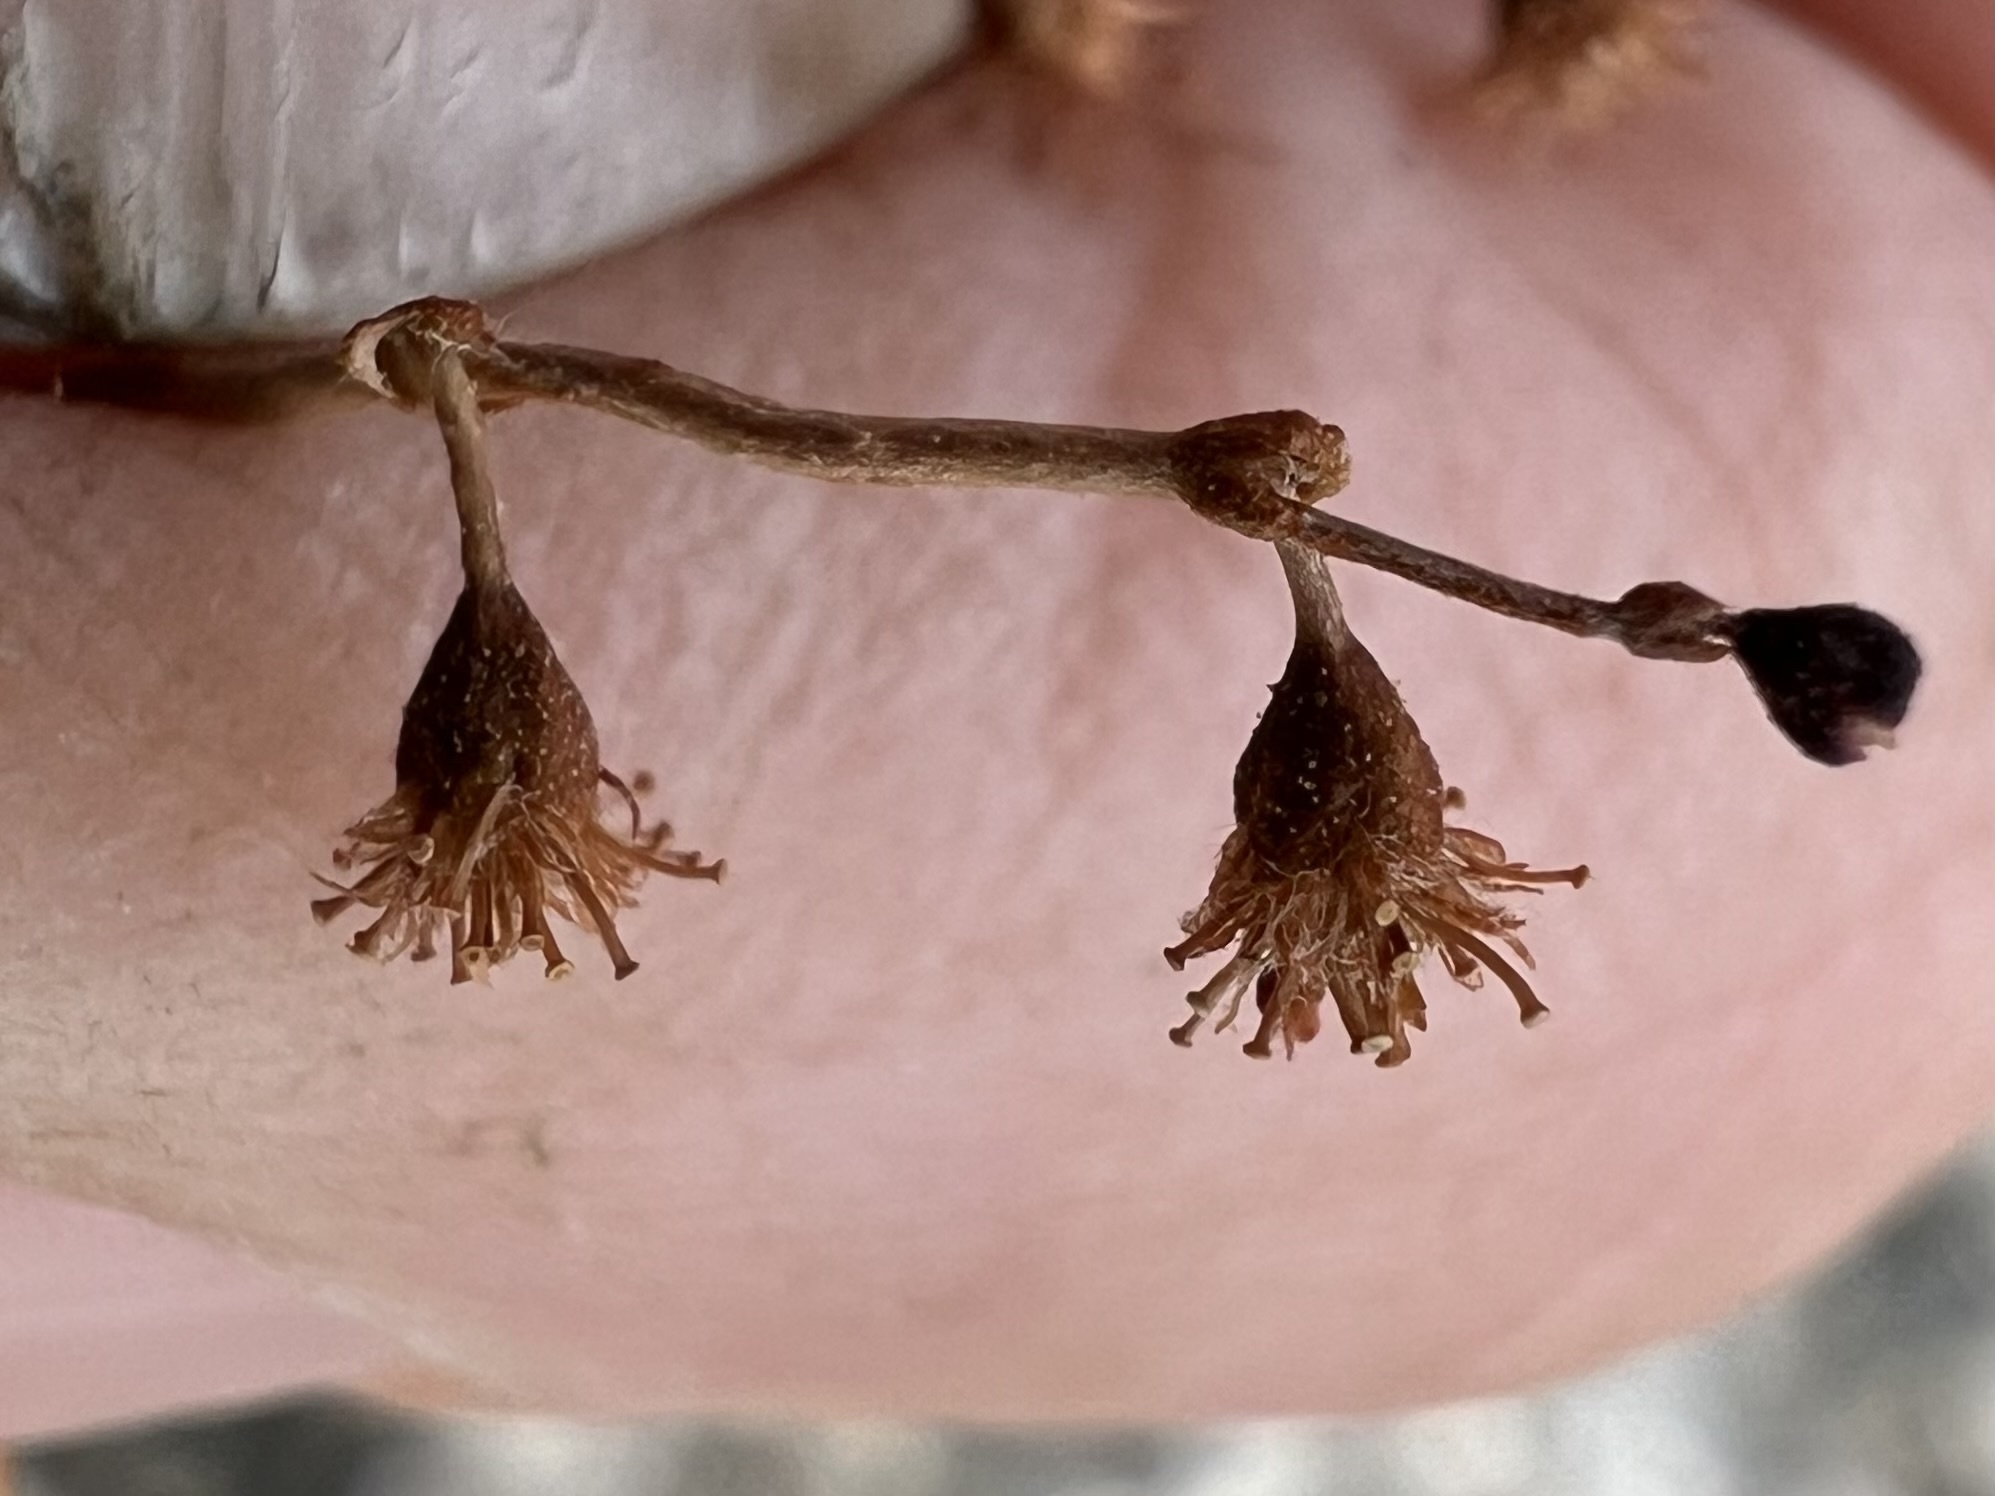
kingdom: Plantae
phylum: Tracheophyta
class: Magnoliopsida
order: Caryophyllales
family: Polygonaceae
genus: Eriogonum
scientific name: Eriogonum brachypodum
